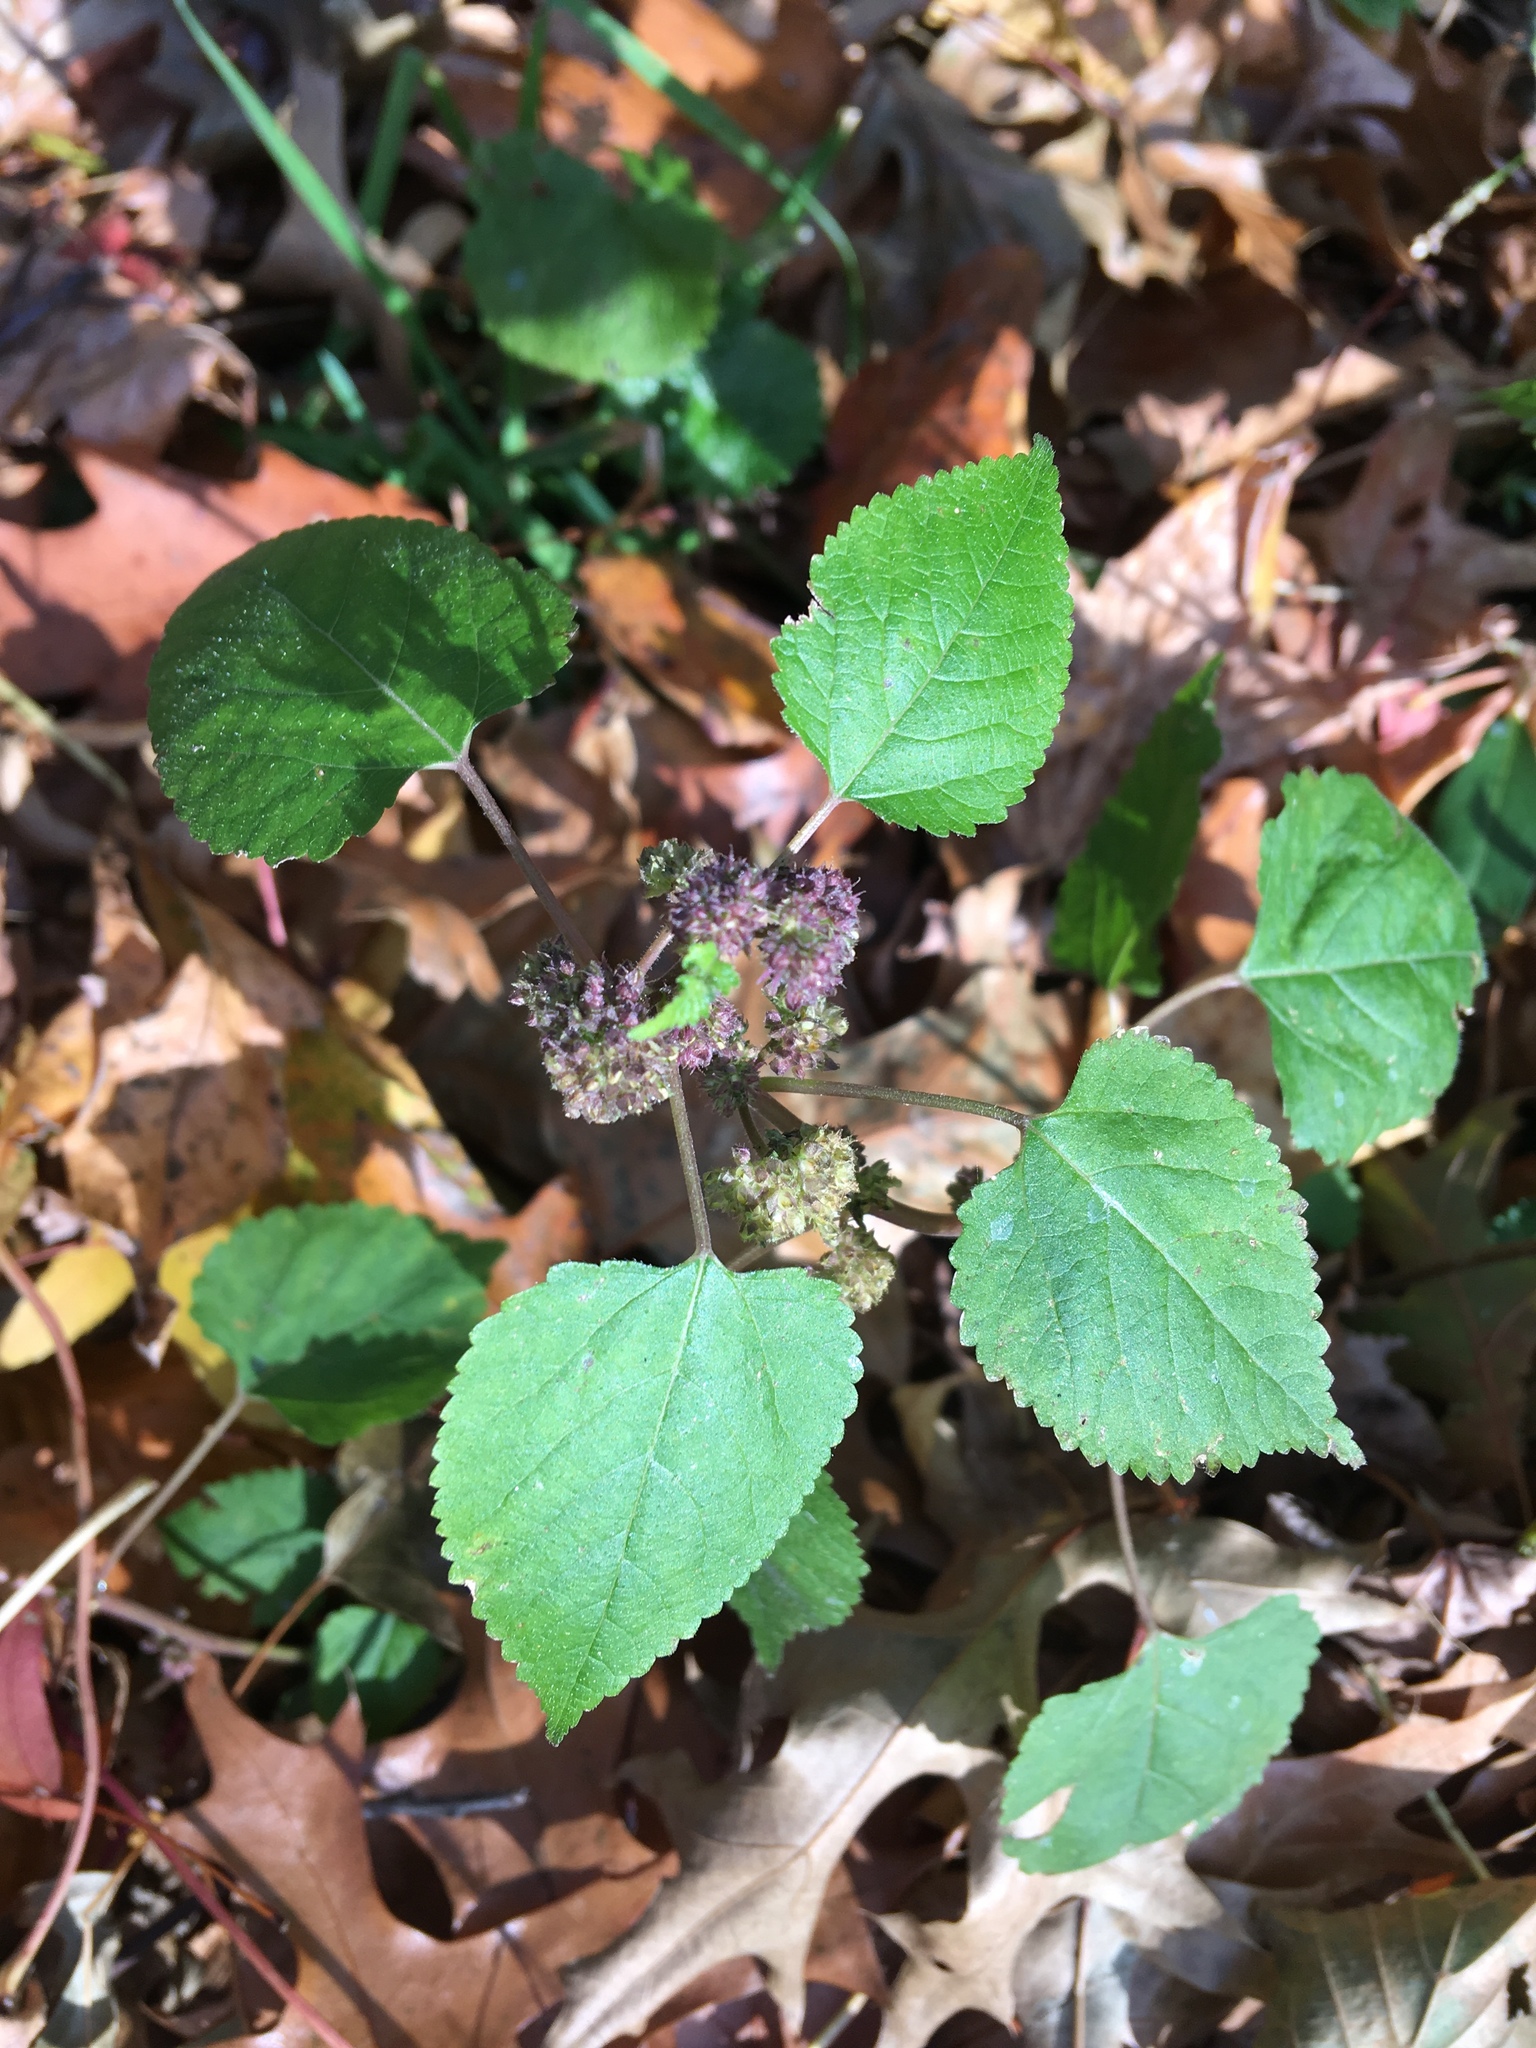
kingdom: Plantae
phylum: Tracheophyta
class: Magnoliopsida
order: Rosales
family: Moraceae
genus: Fatoua
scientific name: Fatoua villosa
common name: Hairy crabweed
